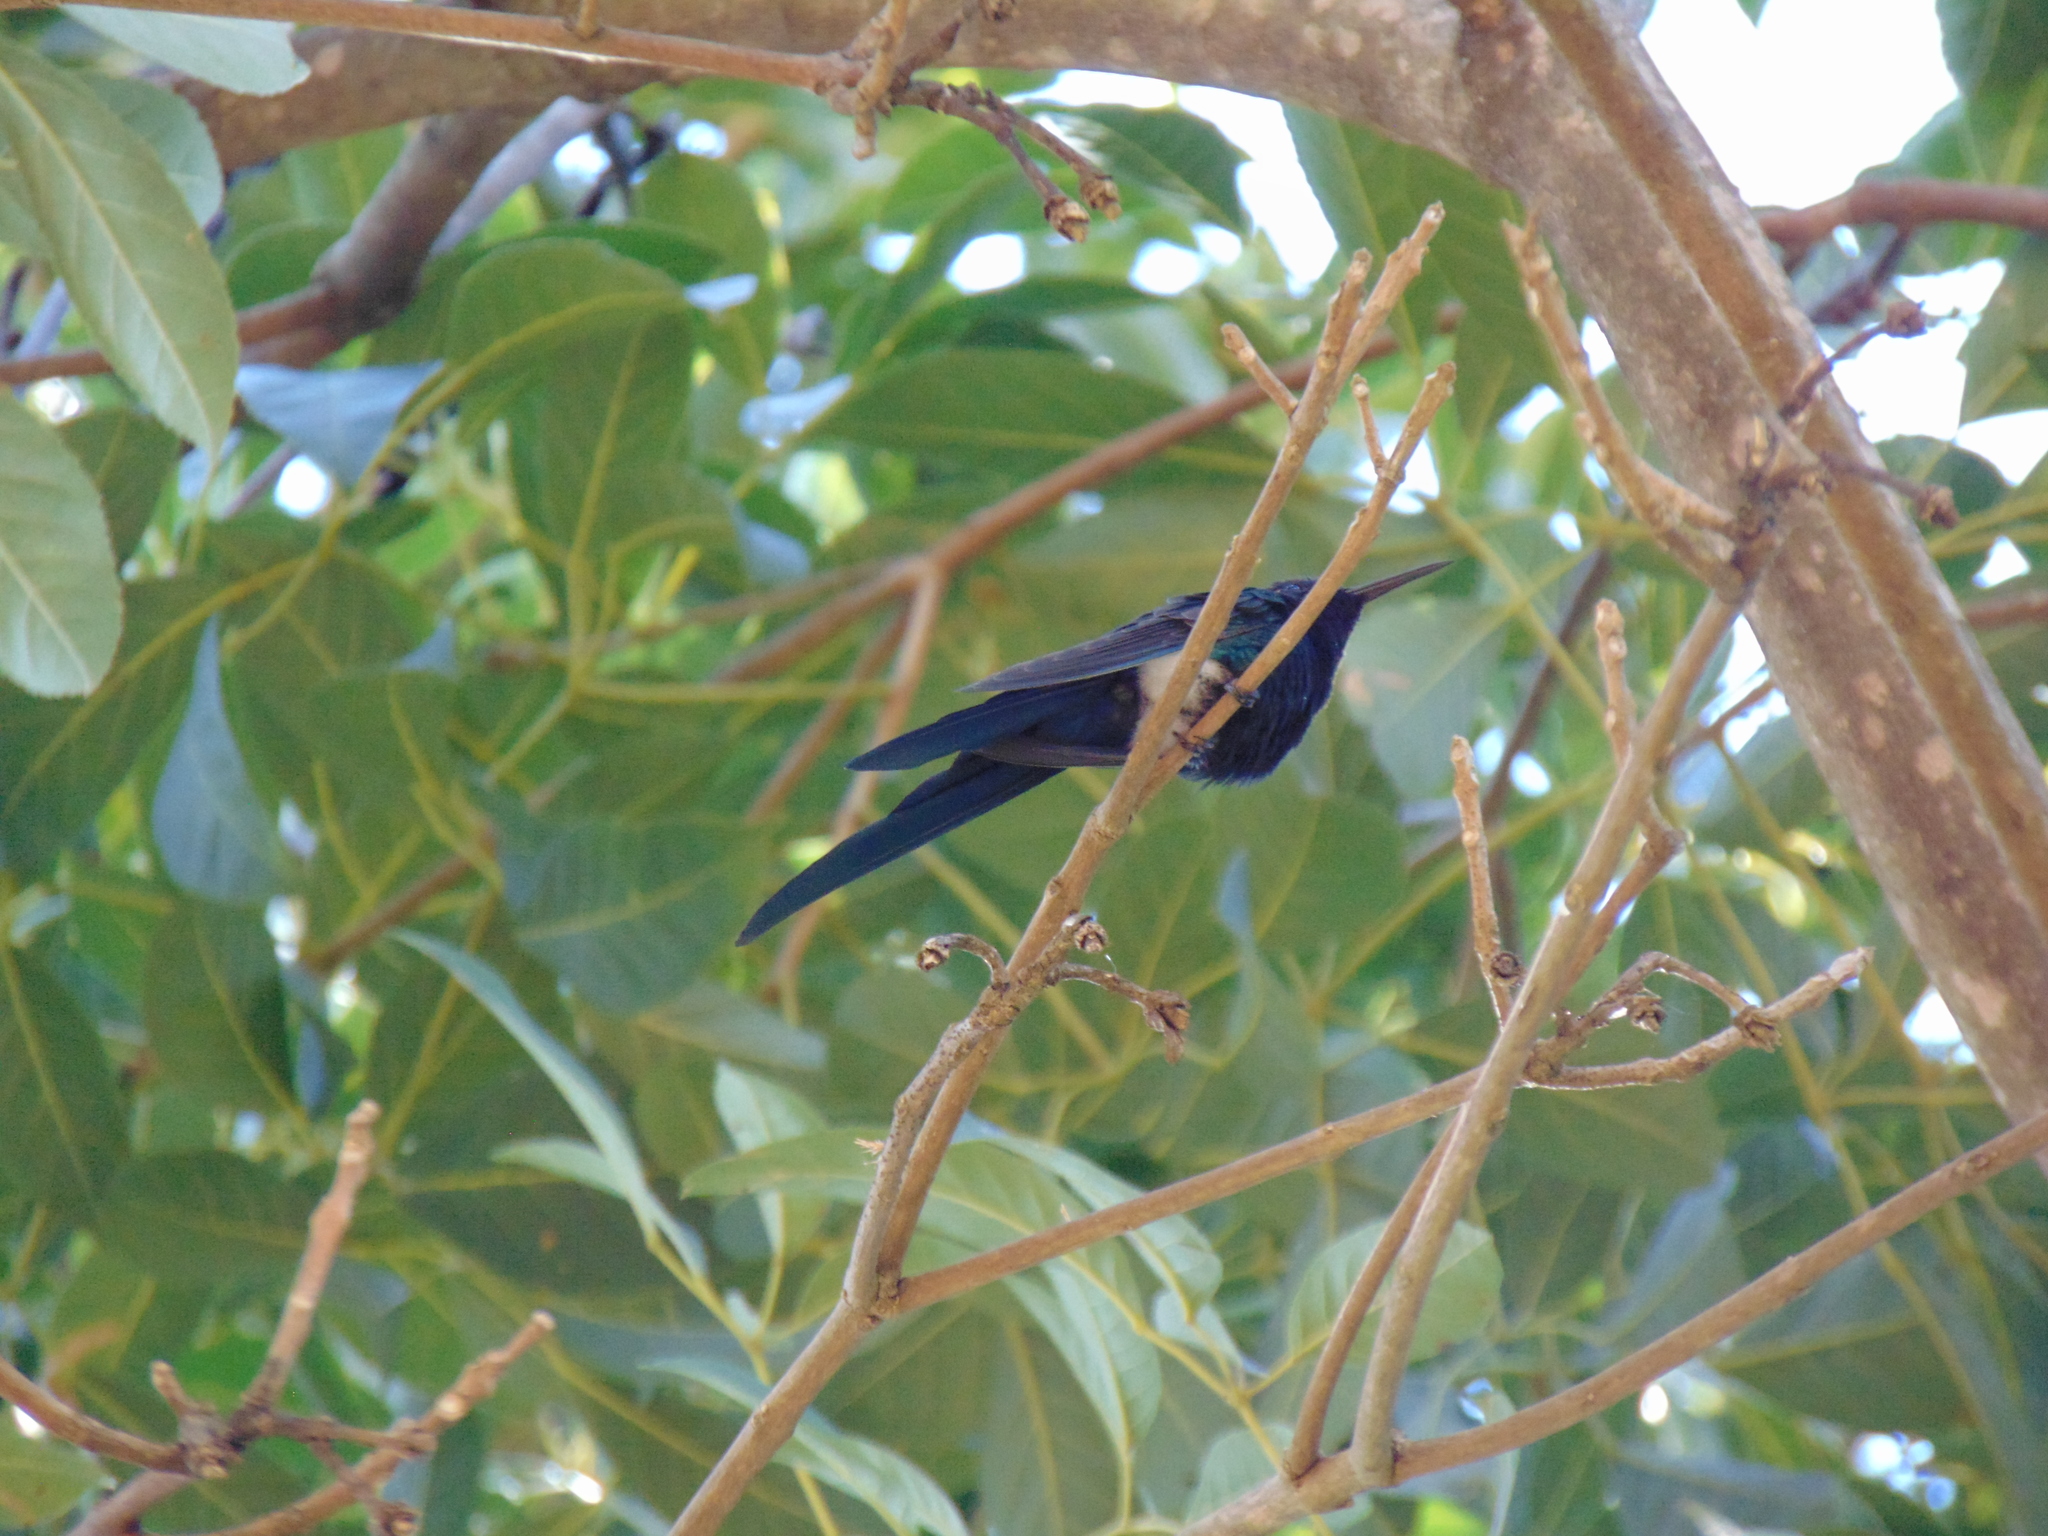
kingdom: Animalia
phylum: Chordata
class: Aves
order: Apodiformes
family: Trochilidae
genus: Eupetomena
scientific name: Eupetomena macroura
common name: Swallow-tailed hummingbird
